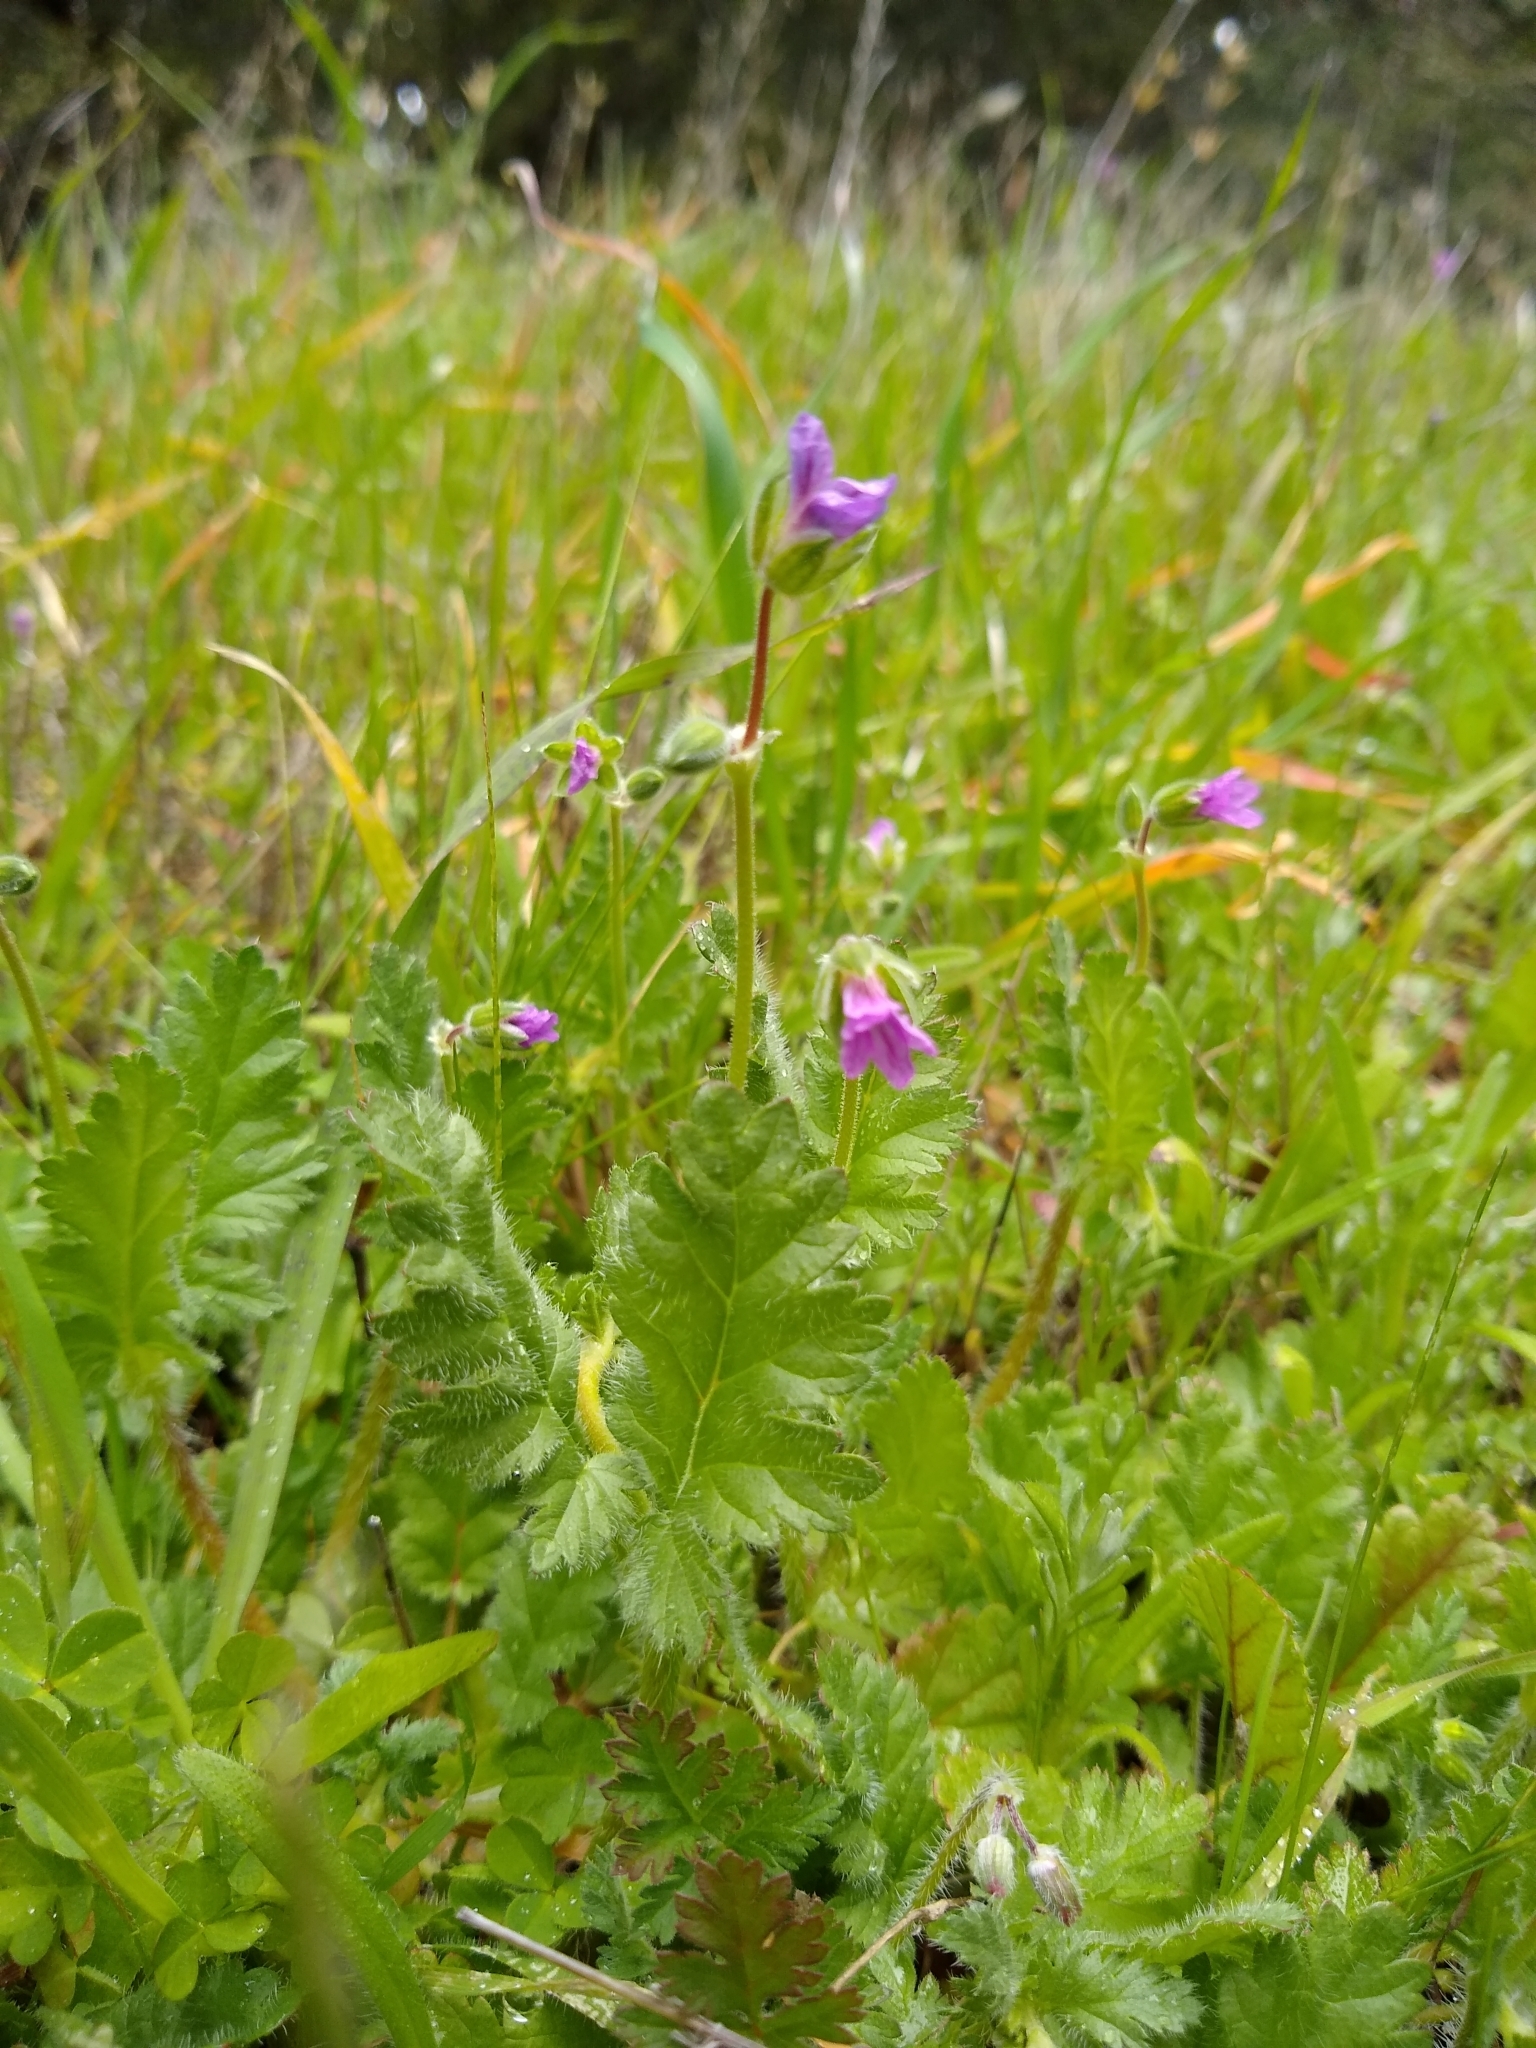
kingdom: Plantae
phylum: Tracheophyta
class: Magnoliopsida
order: Geraniales
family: Geraniaceae
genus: Erodium
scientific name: Erodium botrys
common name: Mediterranean stork's-bill
